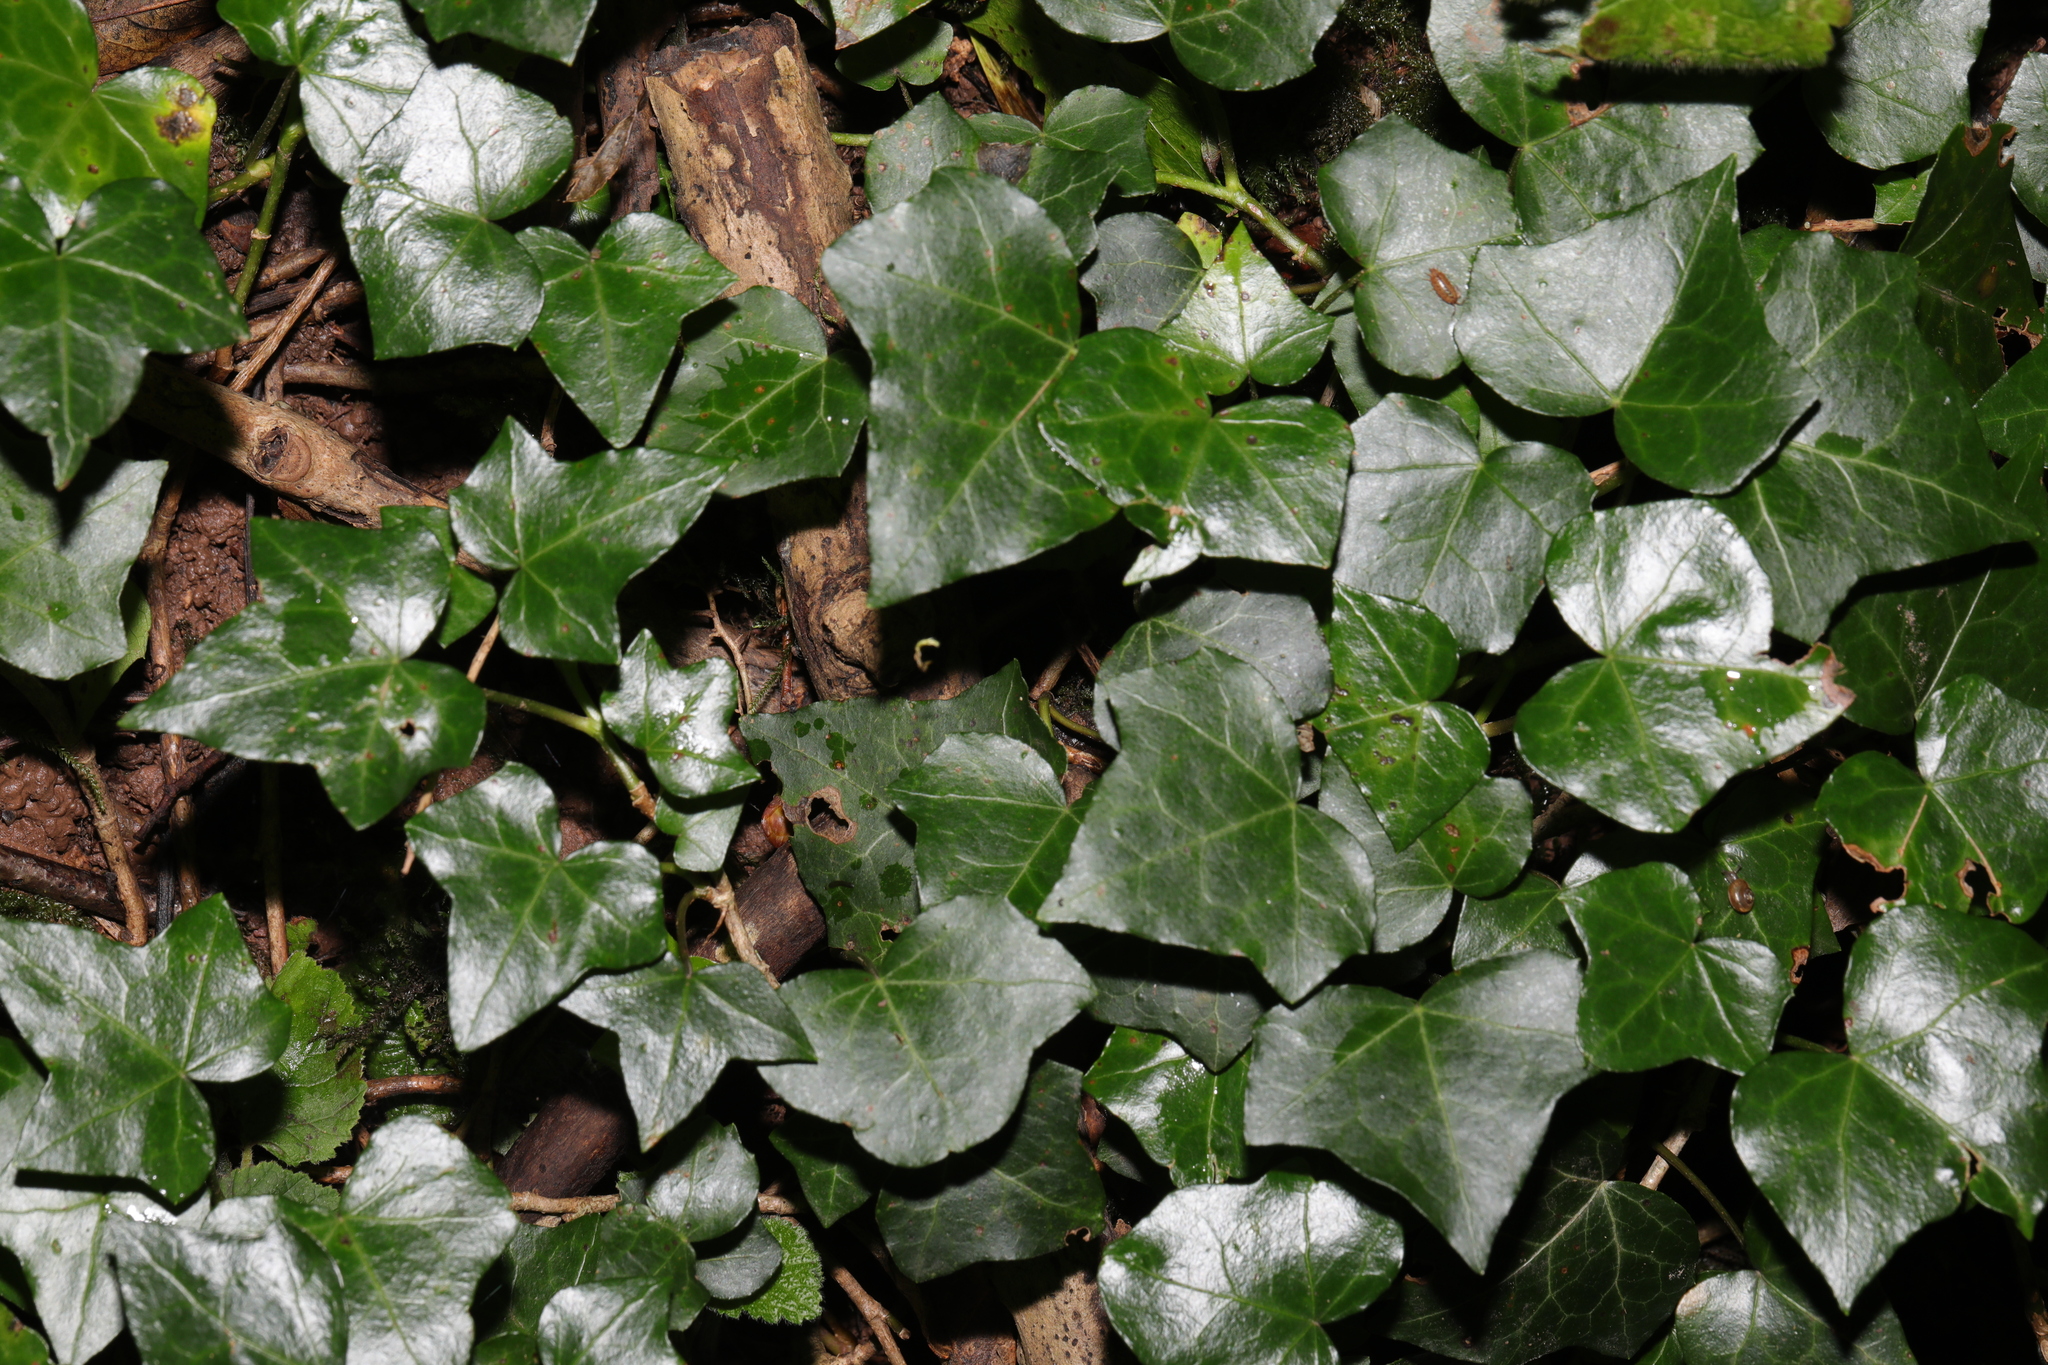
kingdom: Plantae
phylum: Tracheophyta
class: Magnoliopsida
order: Apiales
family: Araliaceae
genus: Hedera
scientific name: Hedera helix
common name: Ivy
